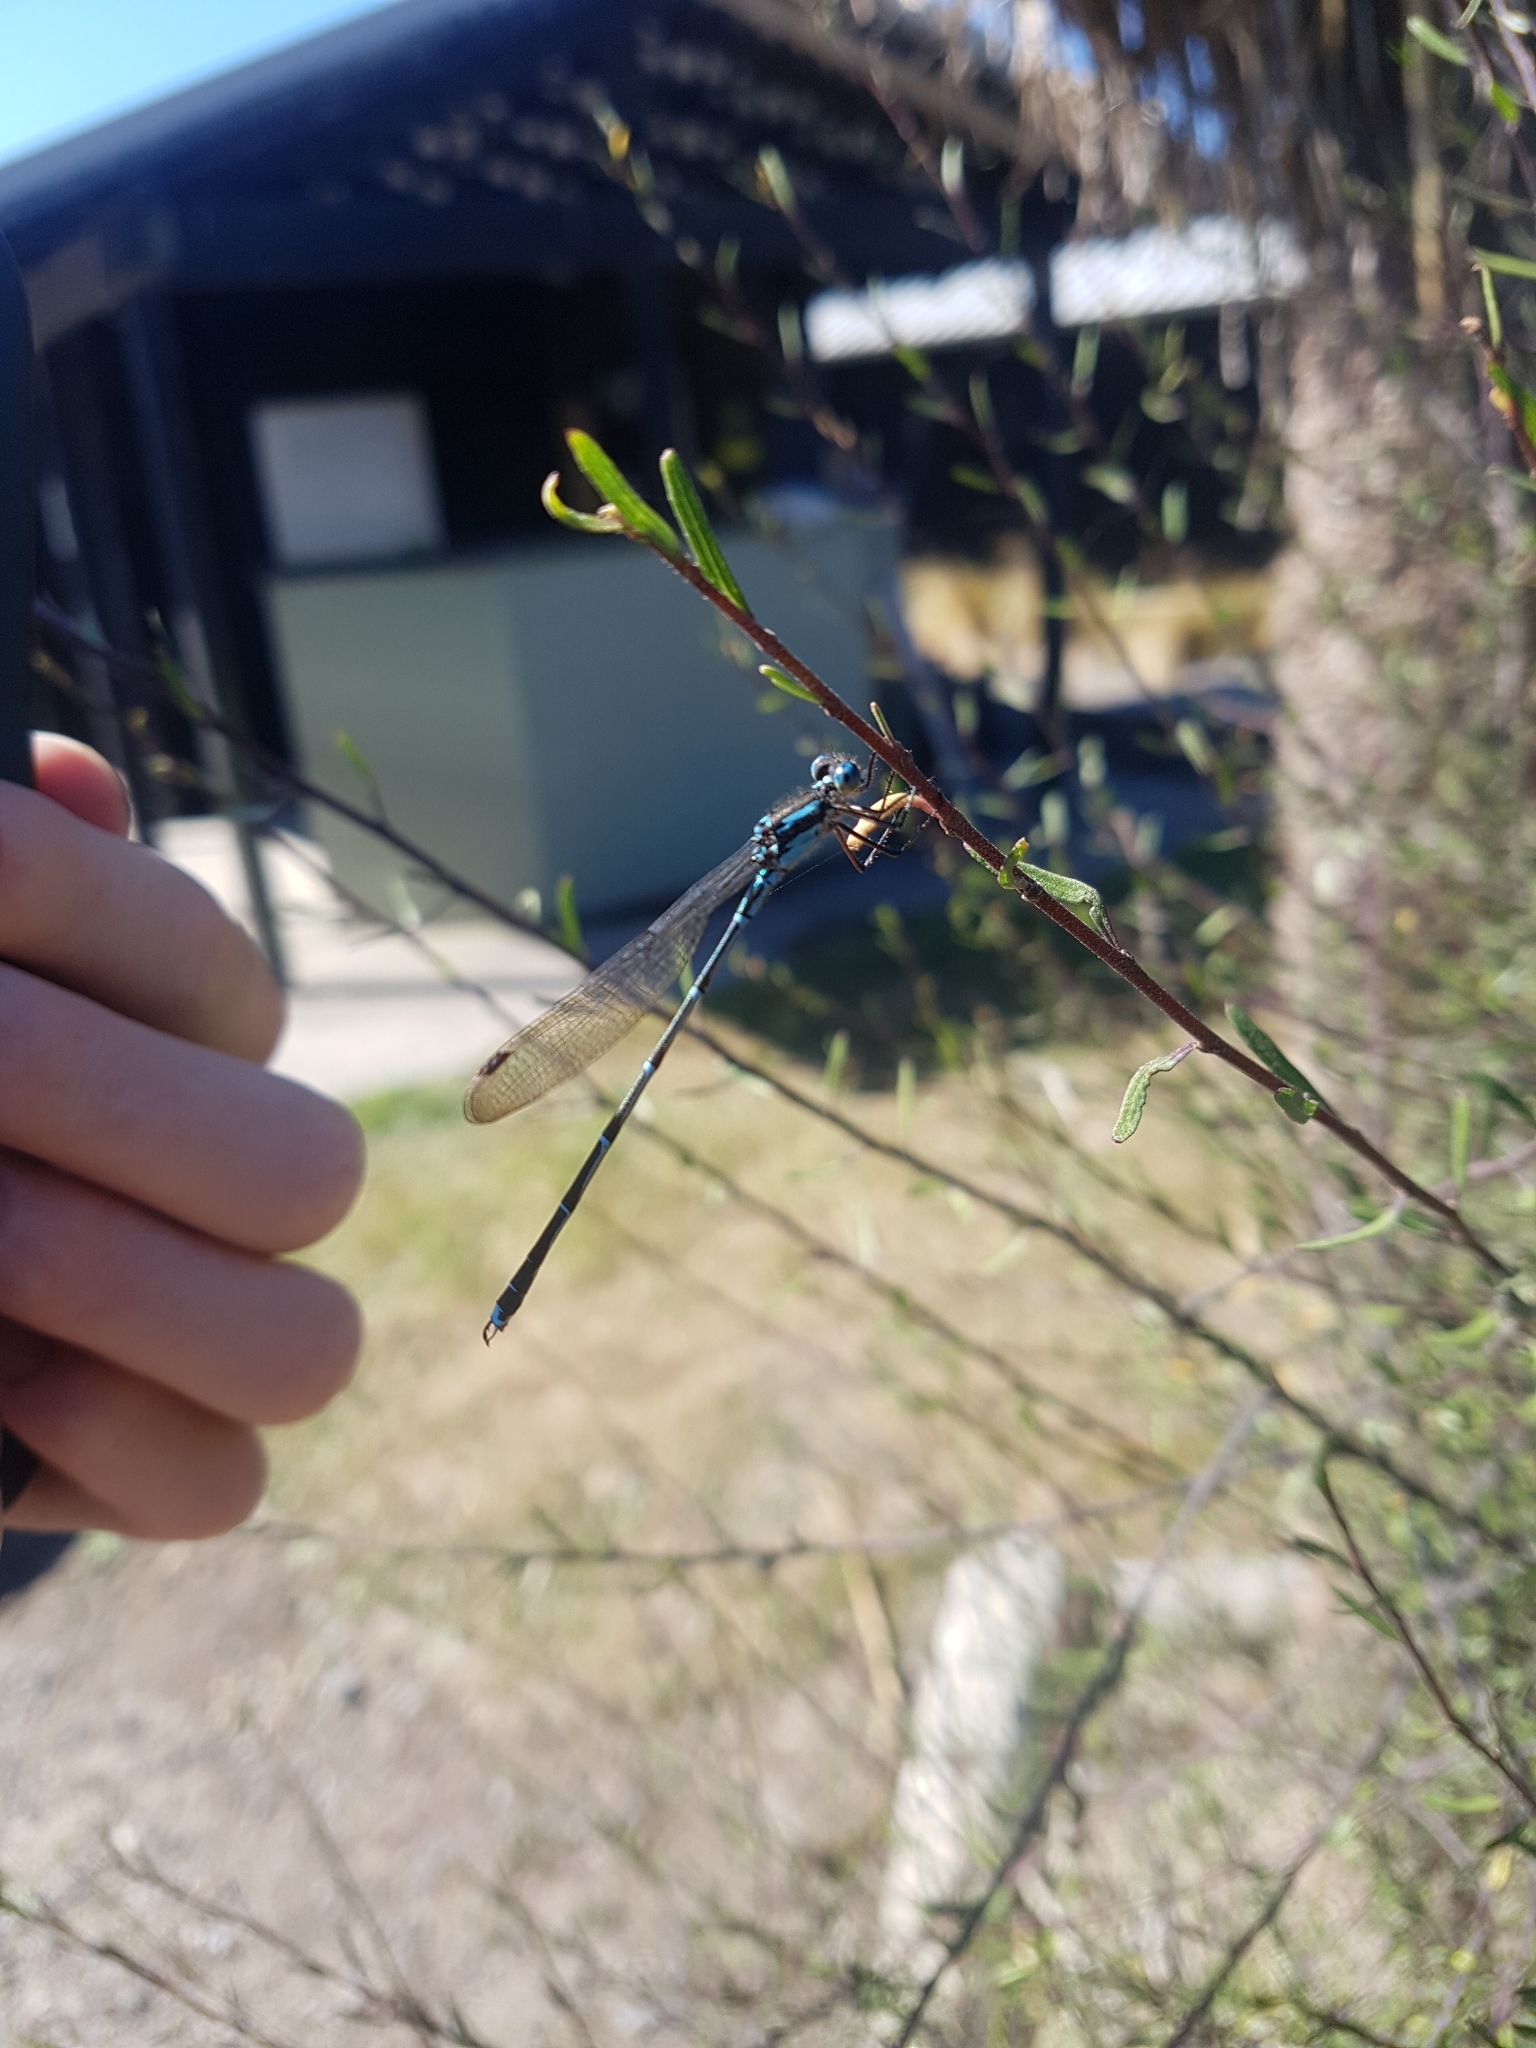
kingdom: Animalia
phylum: Arthropoda
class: Insecta
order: Odonata
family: Lestidae
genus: Austrolestes
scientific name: Austrolestes colensonis
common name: Blue damselfly
